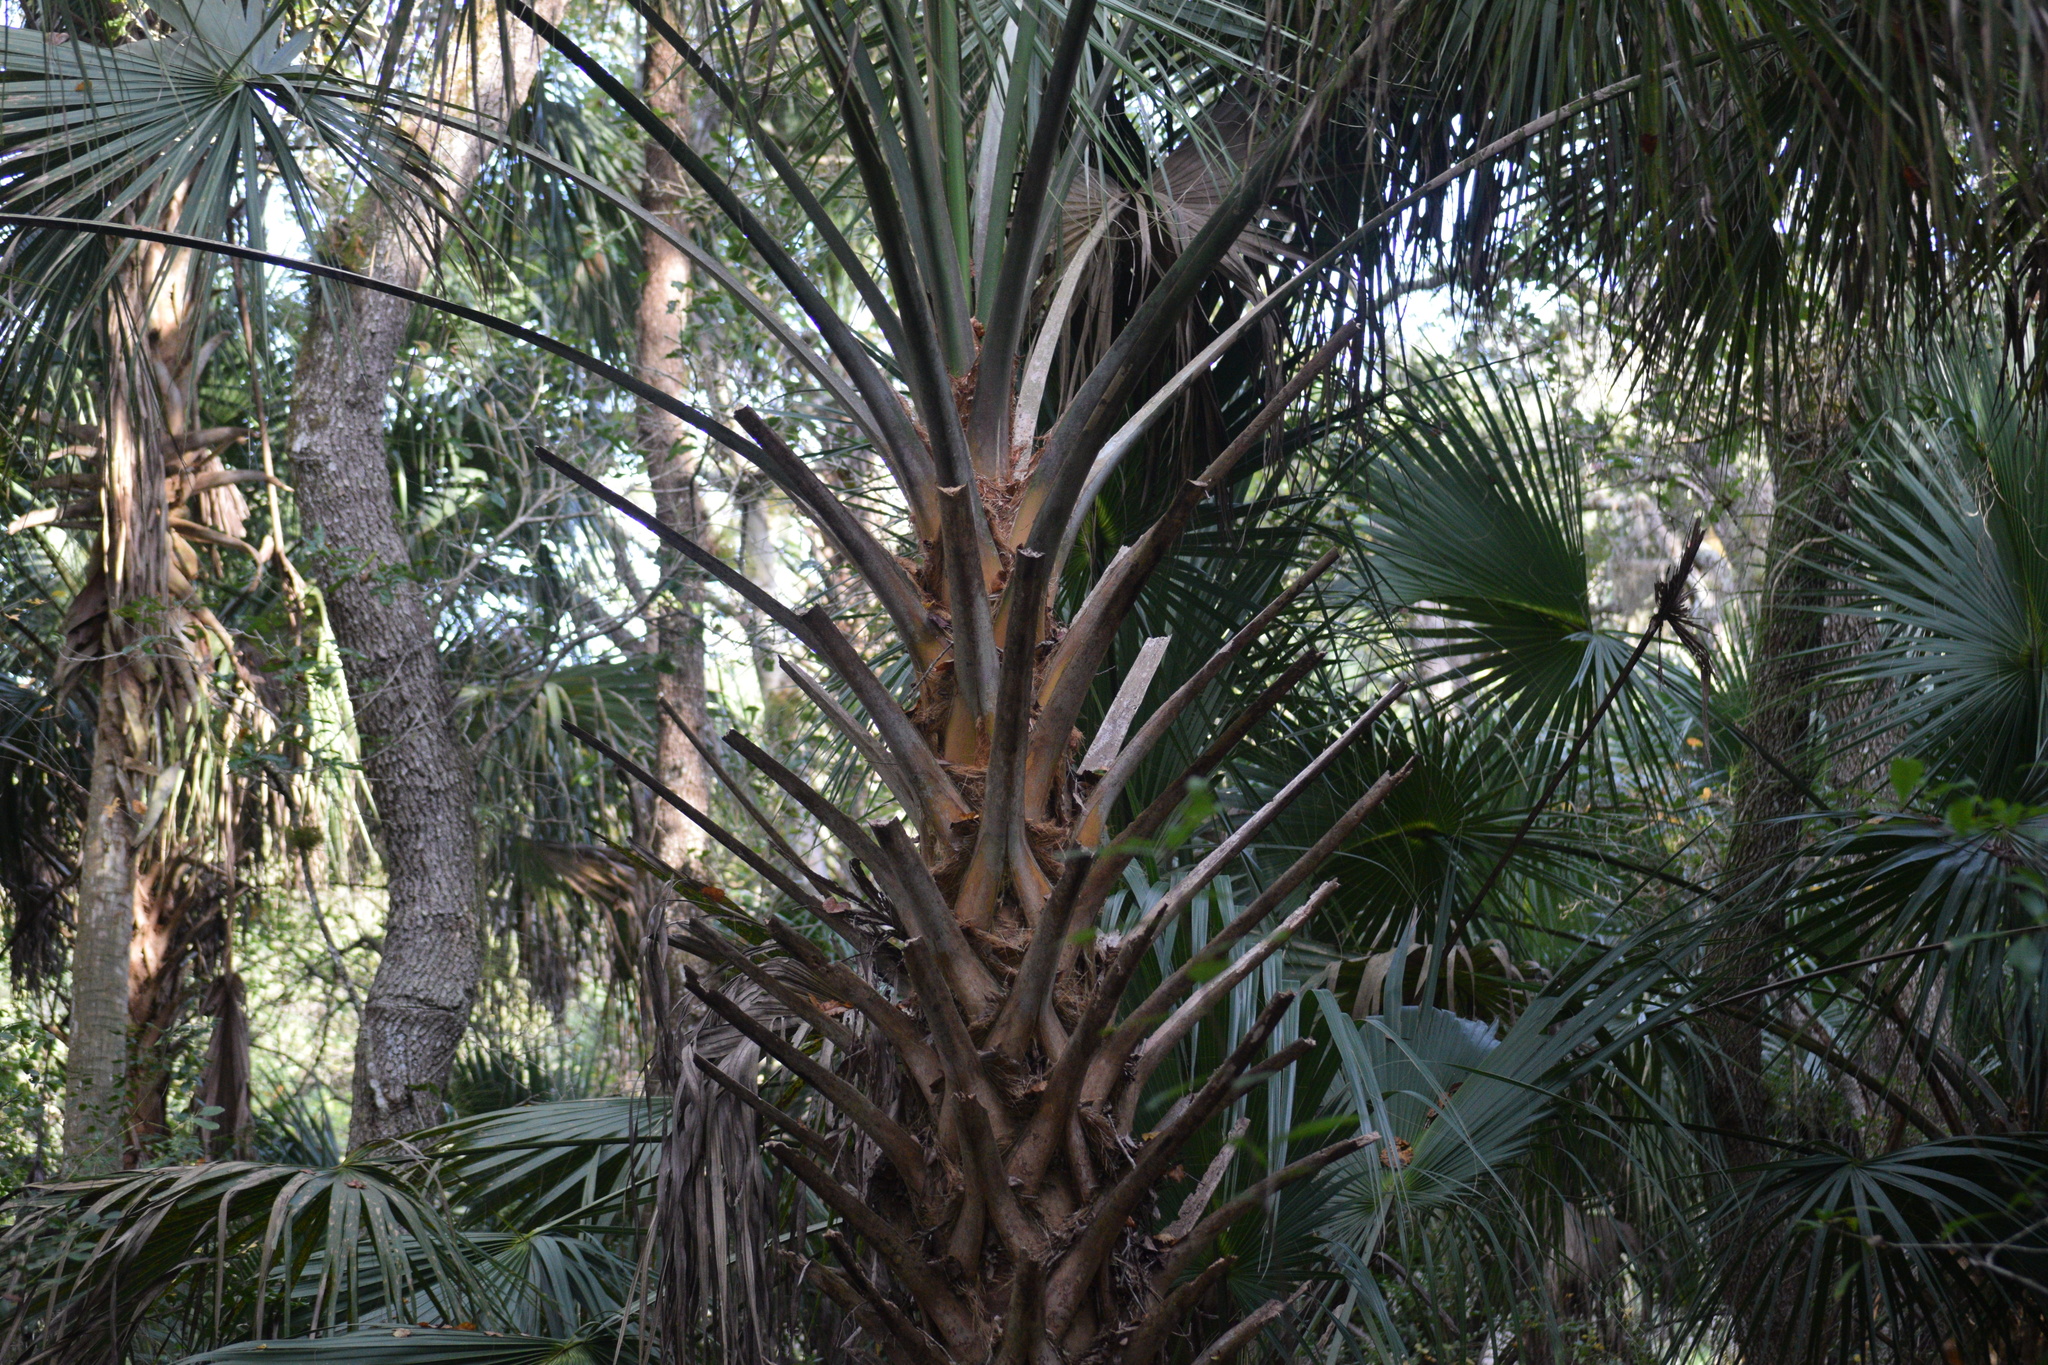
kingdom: Plantae
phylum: Tracheophyta
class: Liliopsida
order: Arecales
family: Arecaceae
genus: Sabal
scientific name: Sabal palmetto
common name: Blue palmetto
